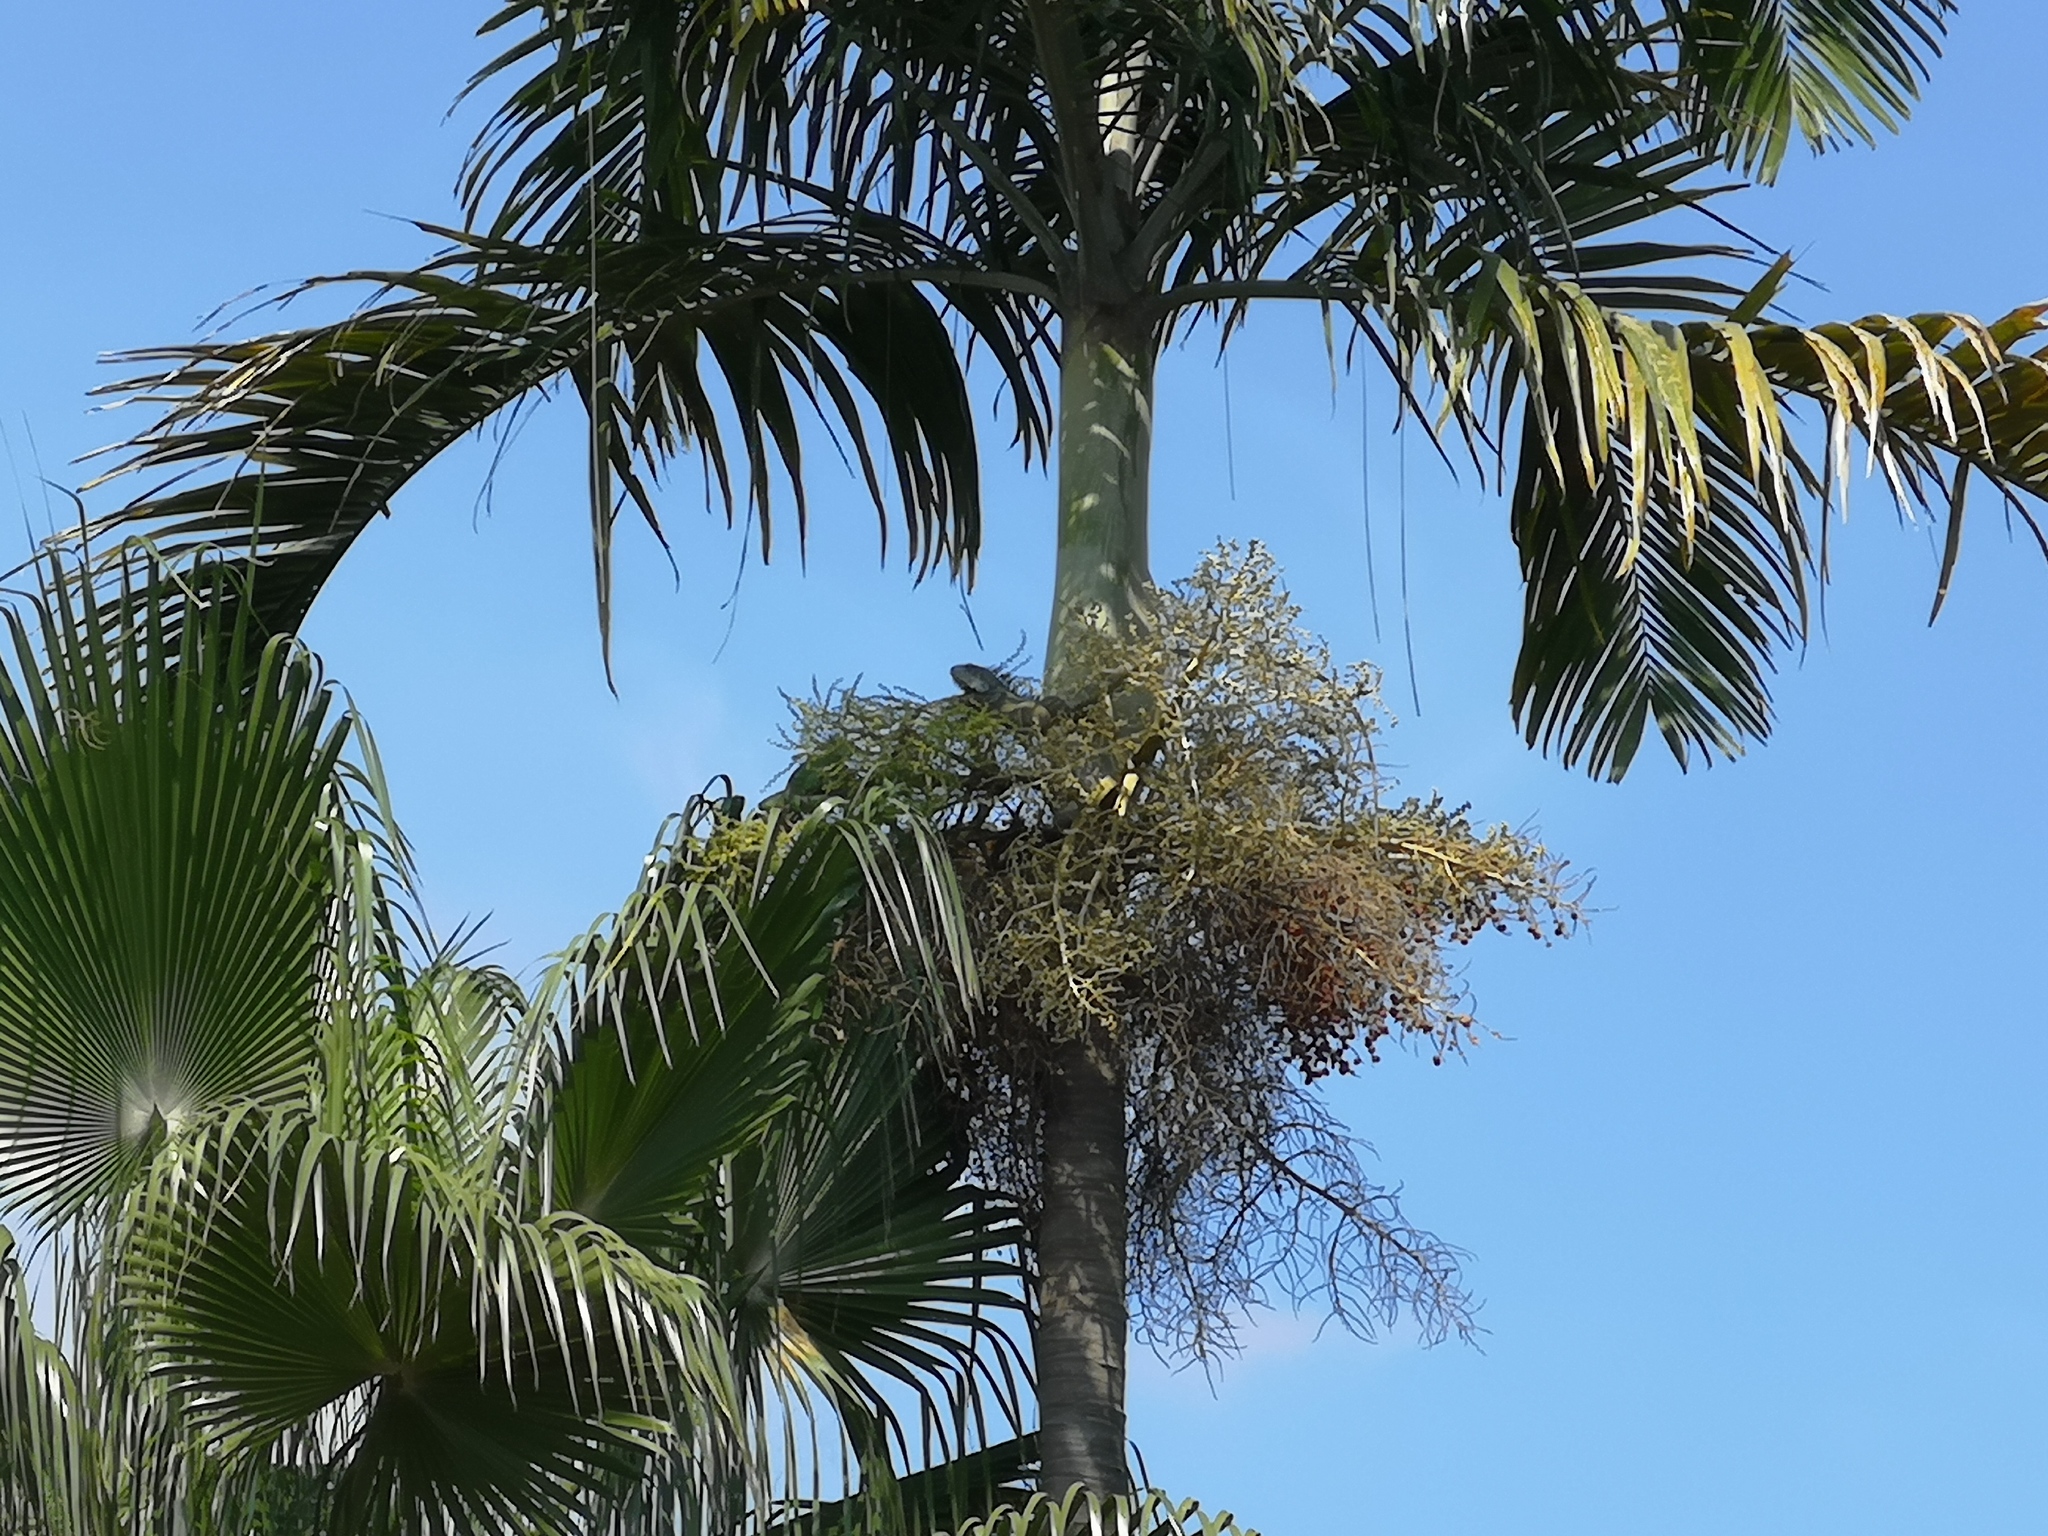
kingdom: Animalia
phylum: Chordata
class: Squamata
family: Iguanidae
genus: Iguana
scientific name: Iguana iguana
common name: Green iguana
